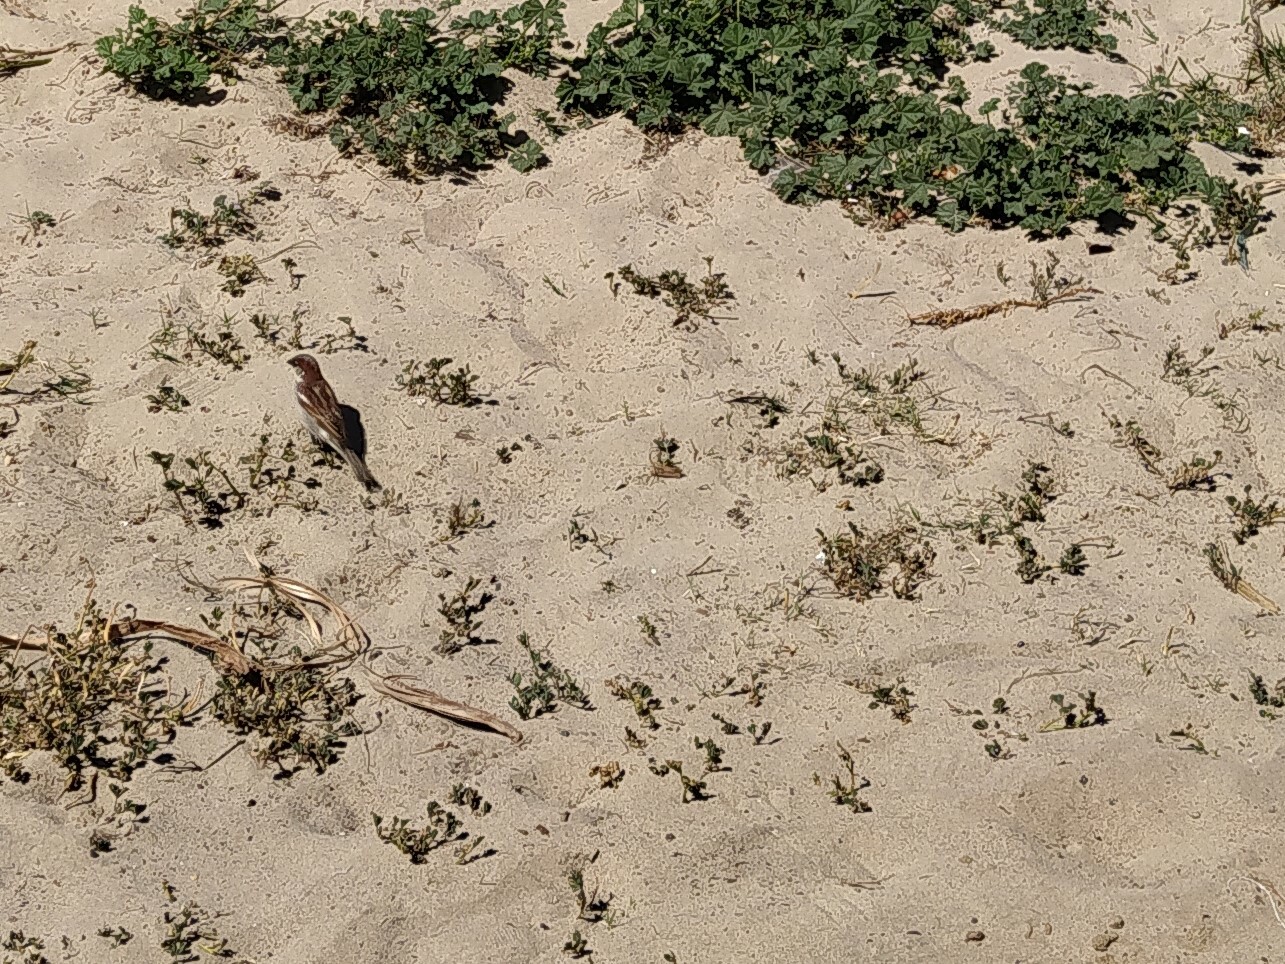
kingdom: Animalia
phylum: Chordata
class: Aves
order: Passeriformes
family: Passeridae
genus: Passer
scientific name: Passer domesticus
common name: House sparrow
